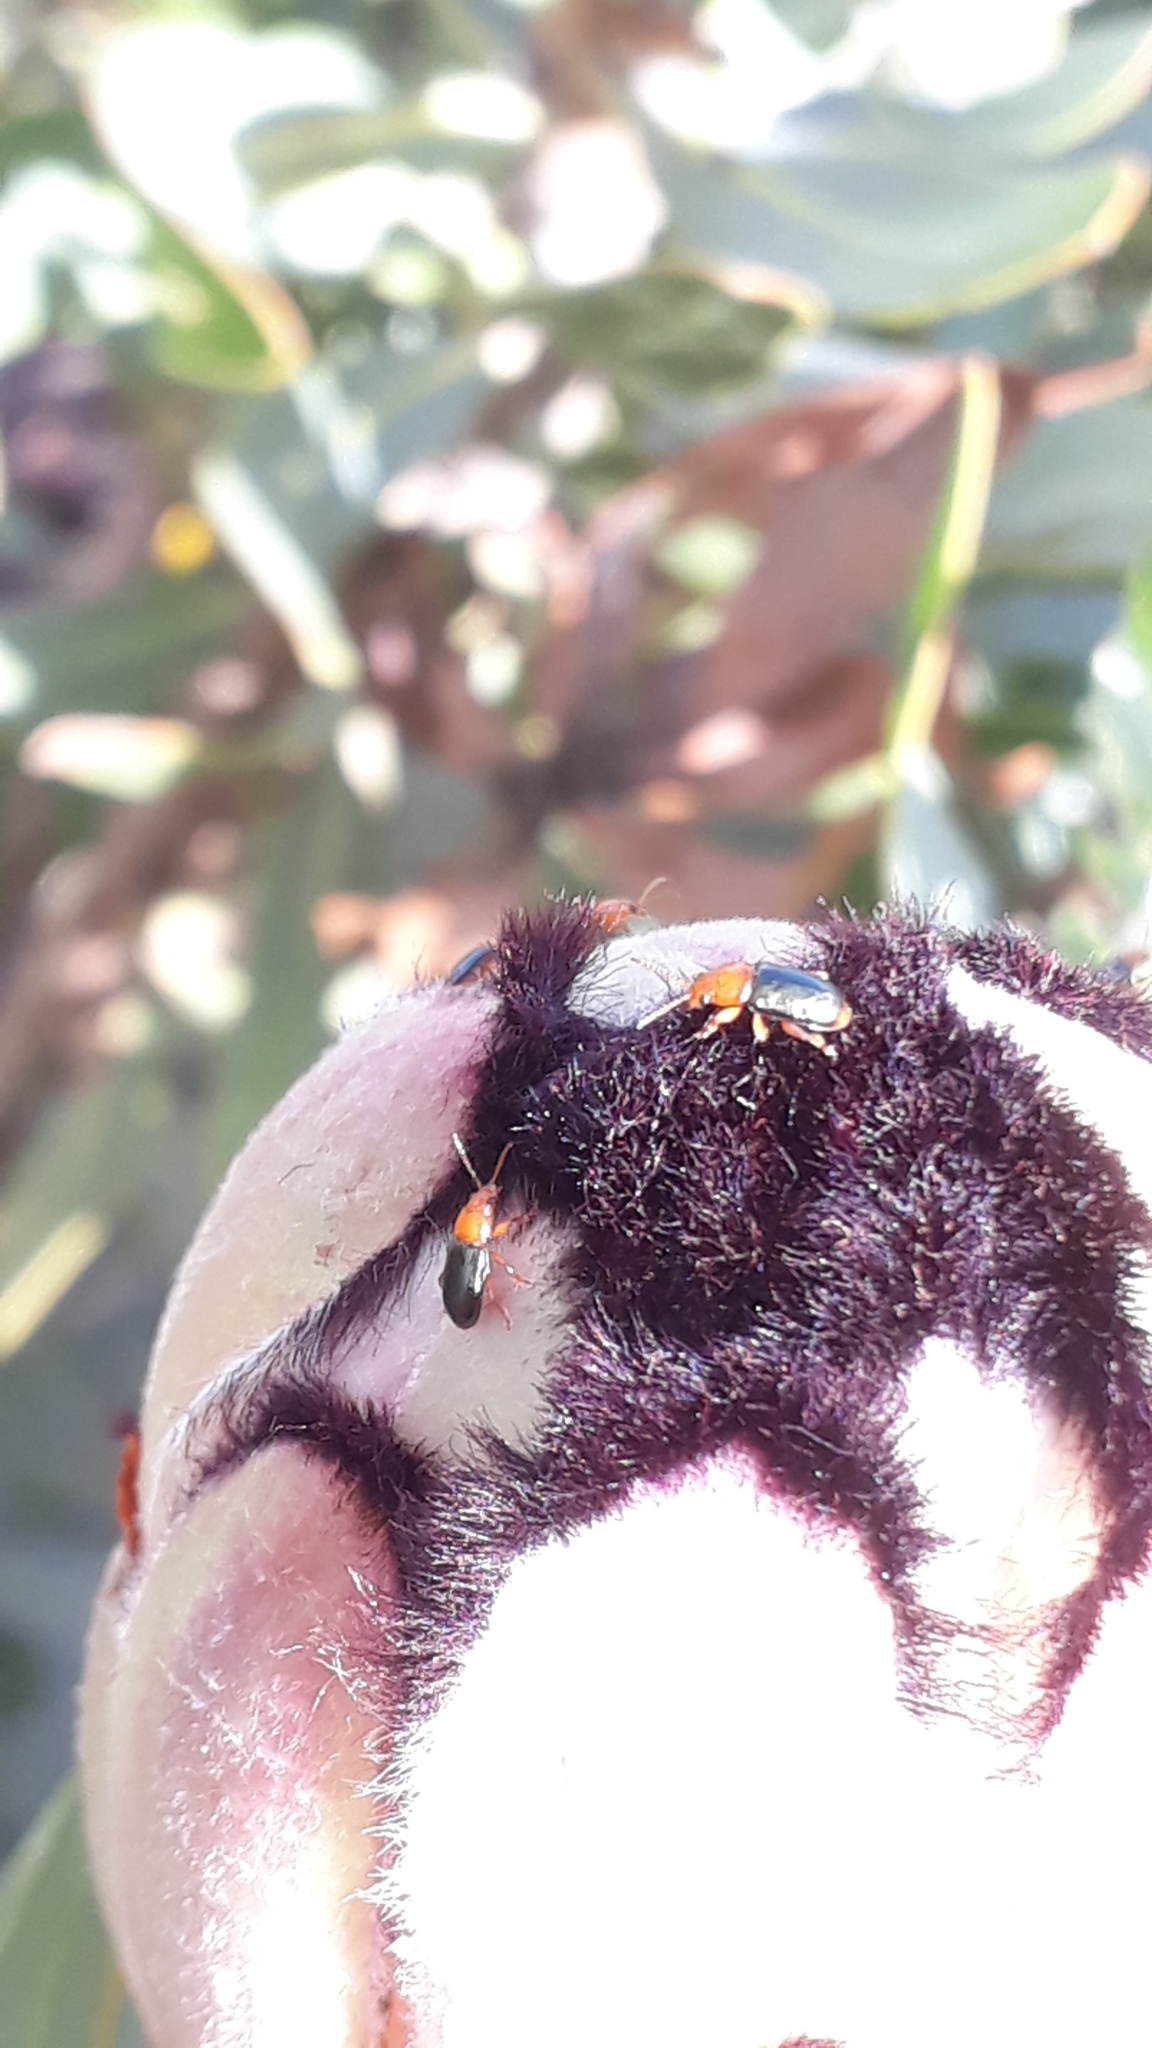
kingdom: Animalia
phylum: Arthropoda
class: Insecta
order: Coleoptera
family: Chrysomelidae
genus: Chirodica
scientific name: Chirodica
